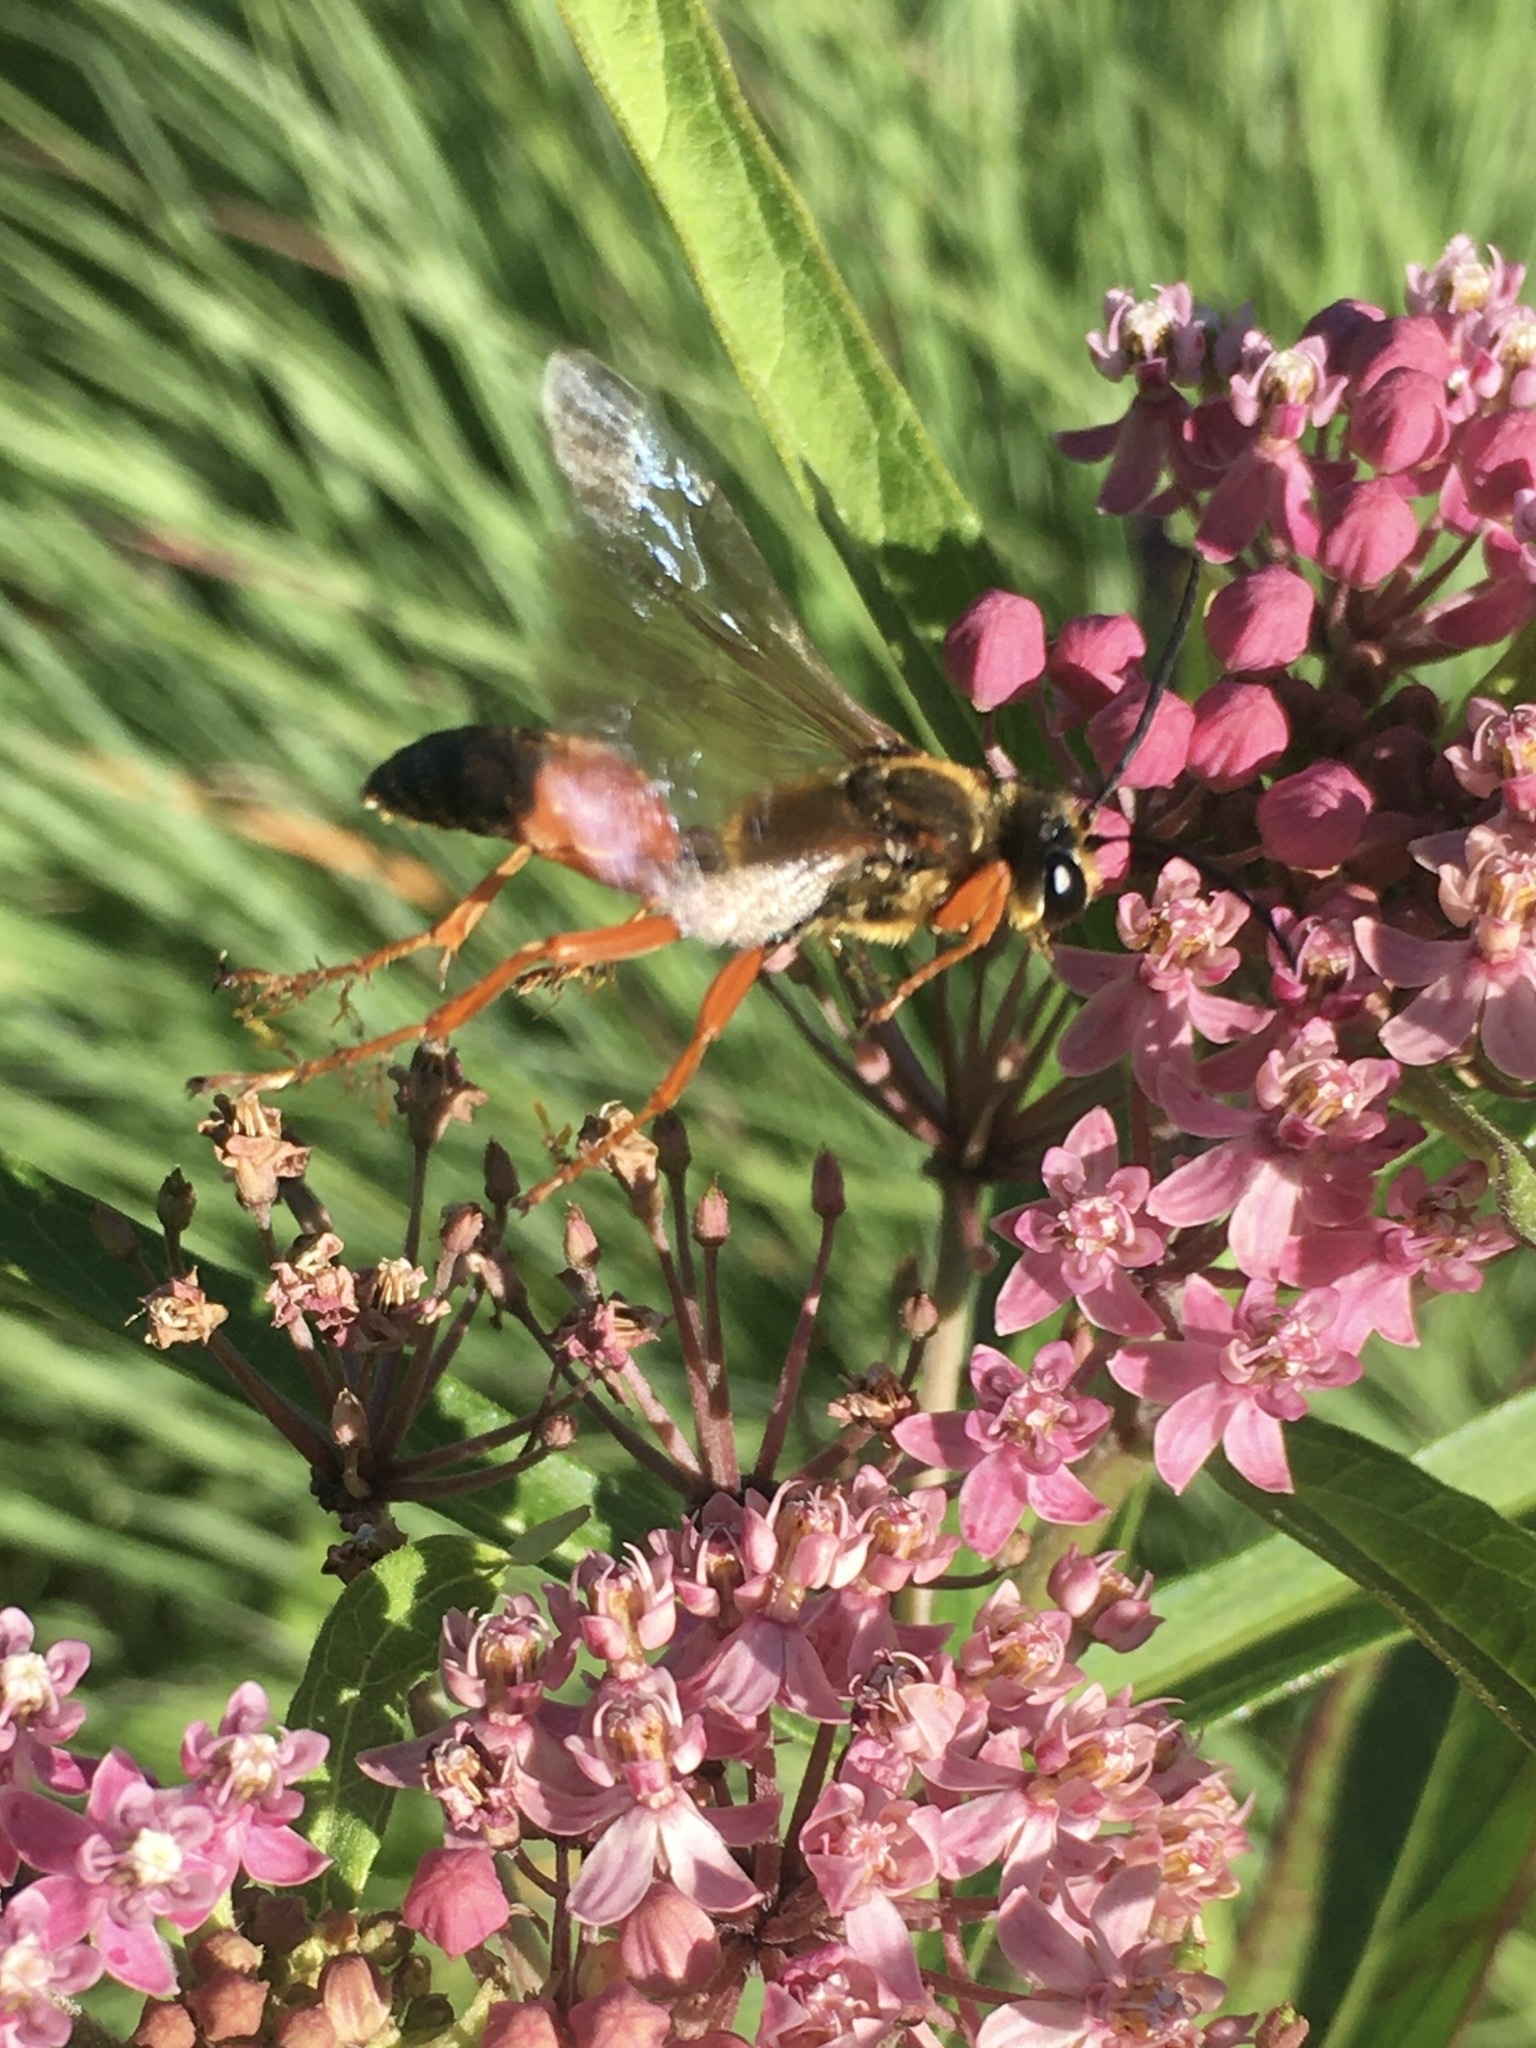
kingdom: Animalia
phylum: Arthropoda
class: Insecta
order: Hymenoptera
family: Sphecidae
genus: Sphex
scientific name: Sphex ichneumoneus
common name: Great golden digger wasp
